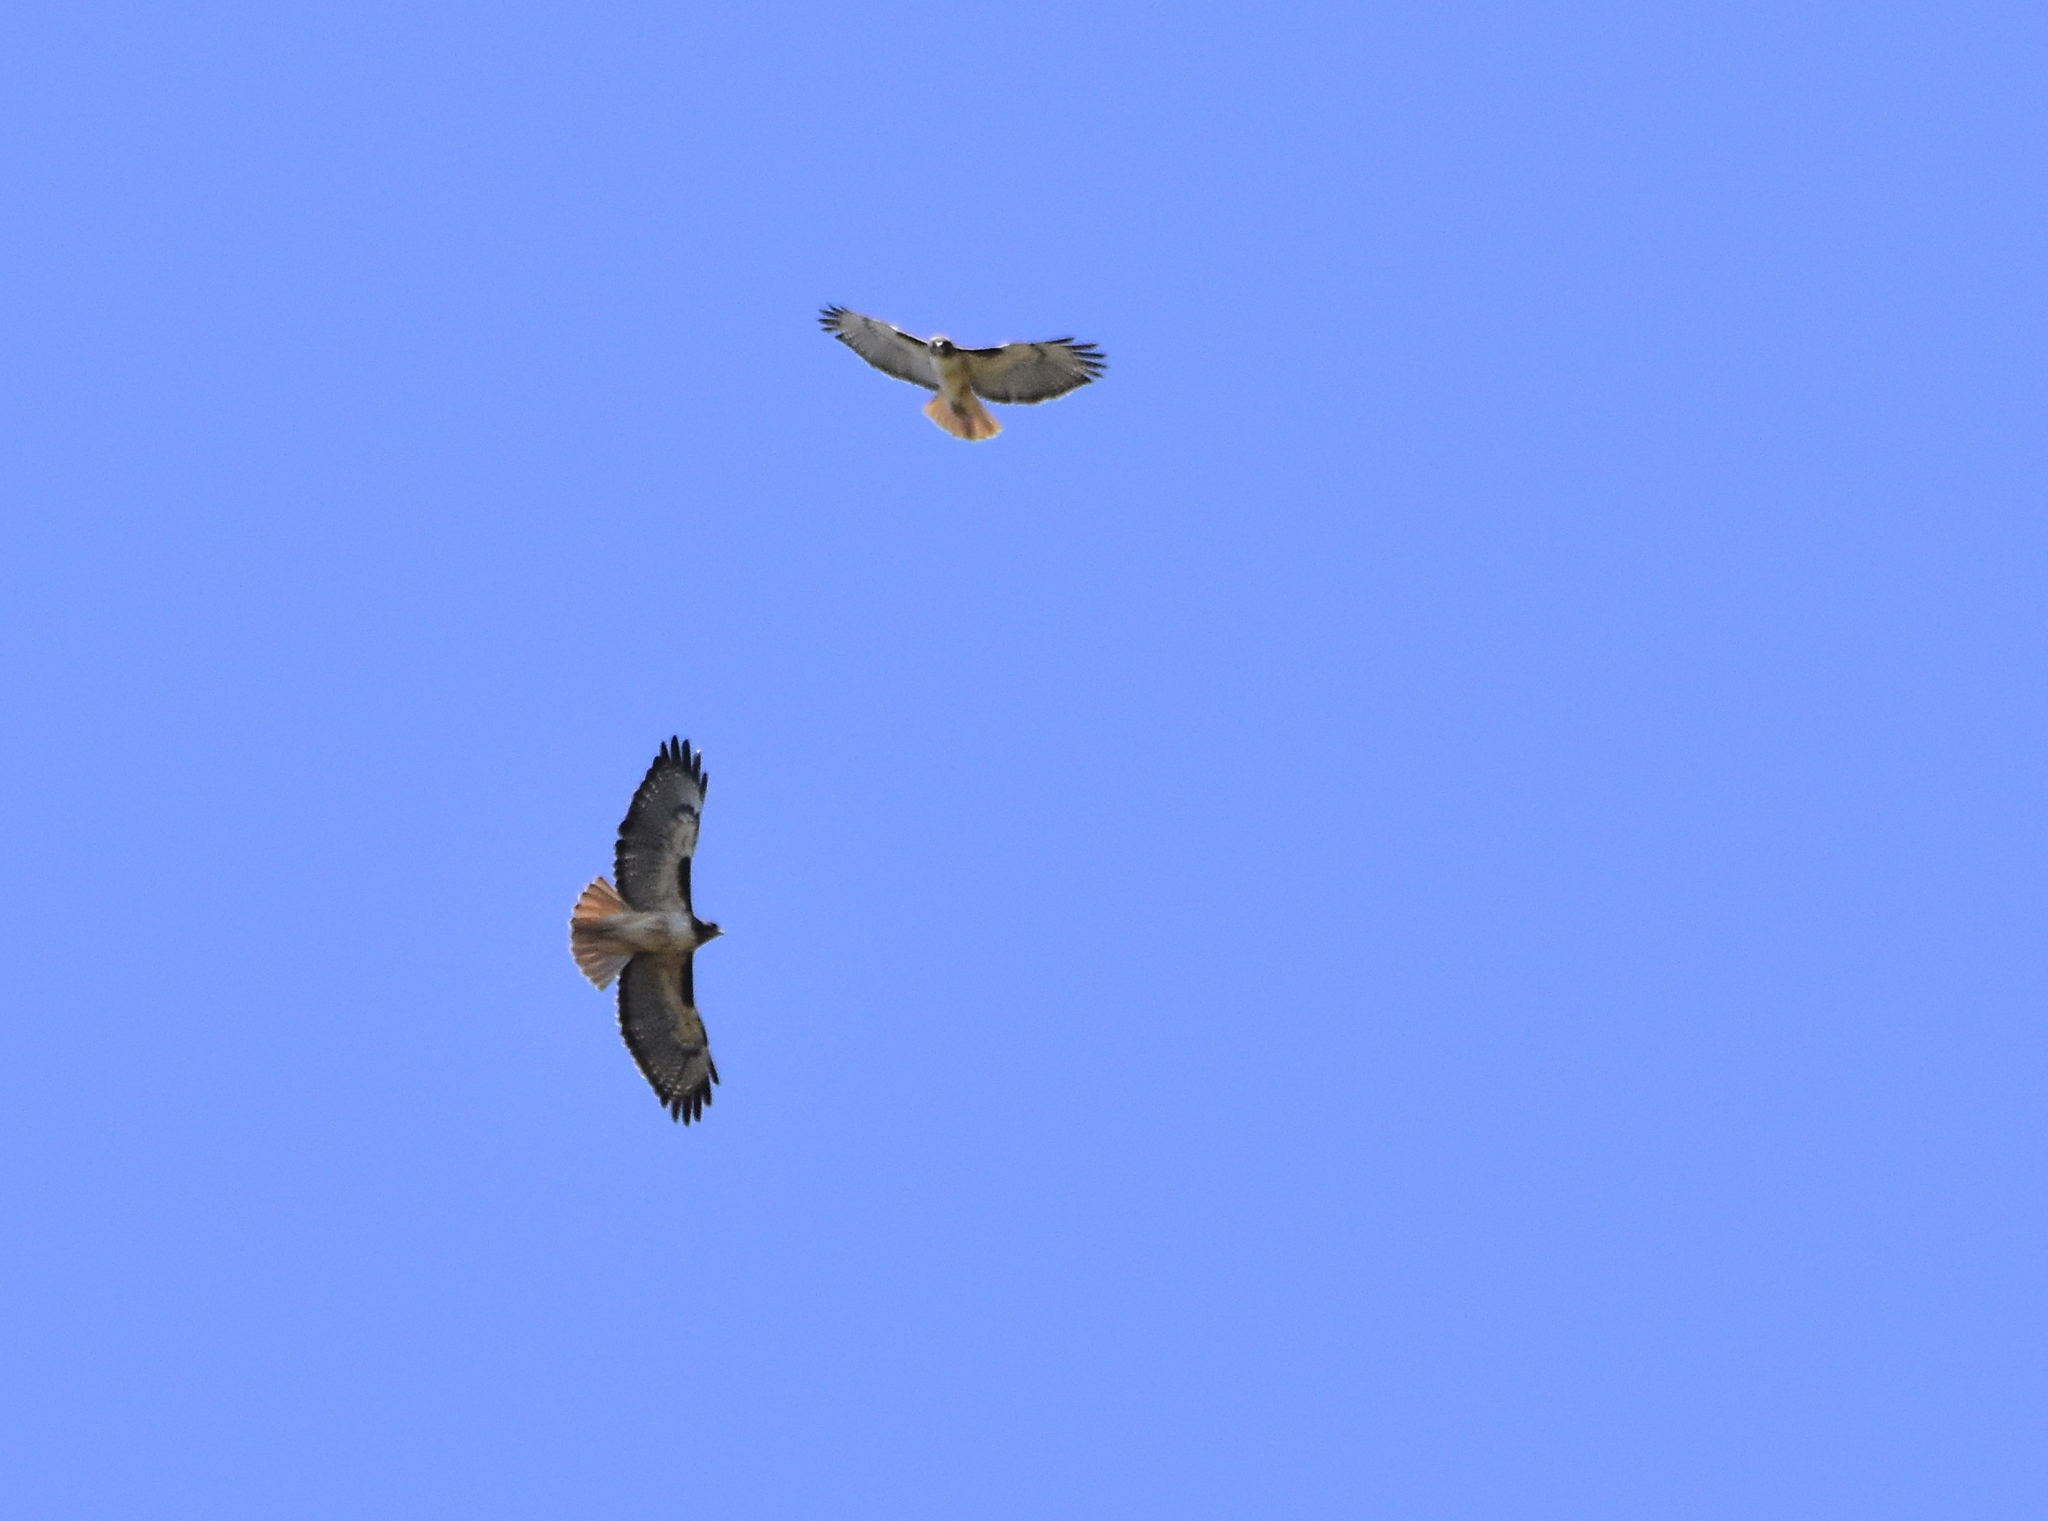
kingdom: Animalia
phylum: Chordata
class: Aves
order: Accipitriformes
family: Accipitridae
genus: Buteo
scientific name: Buteo jamaicensis
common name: Red-tailed hawk
